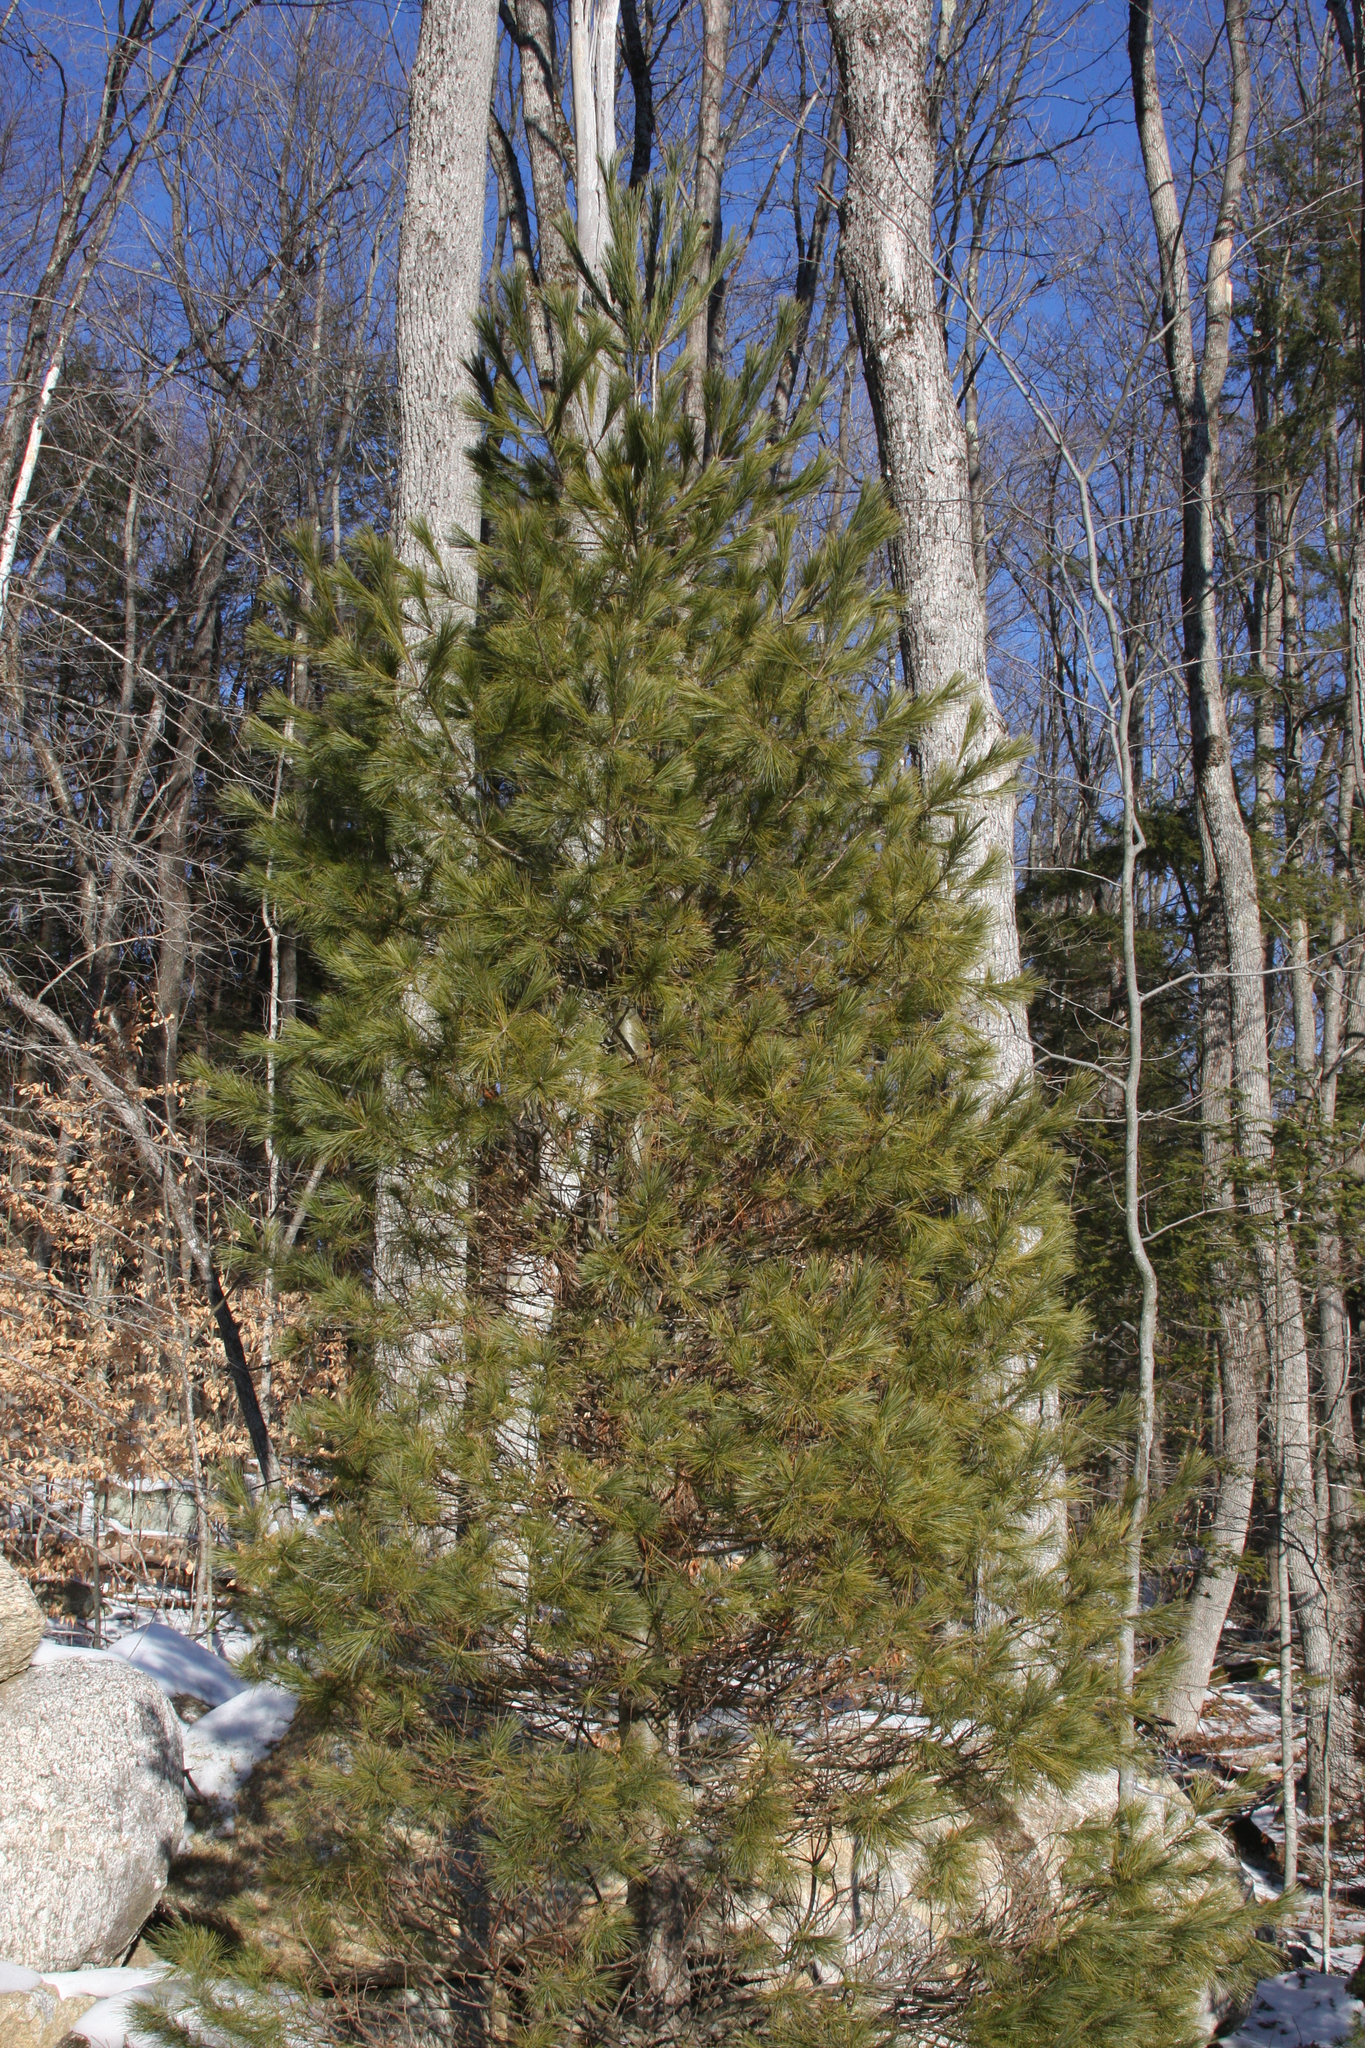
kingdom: Plantae
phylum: Tracheophyta
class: Pinopsida
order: Pinales
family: Pinaceae
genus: Pinus
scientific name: Pinus strobus
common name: Weymouth pine
